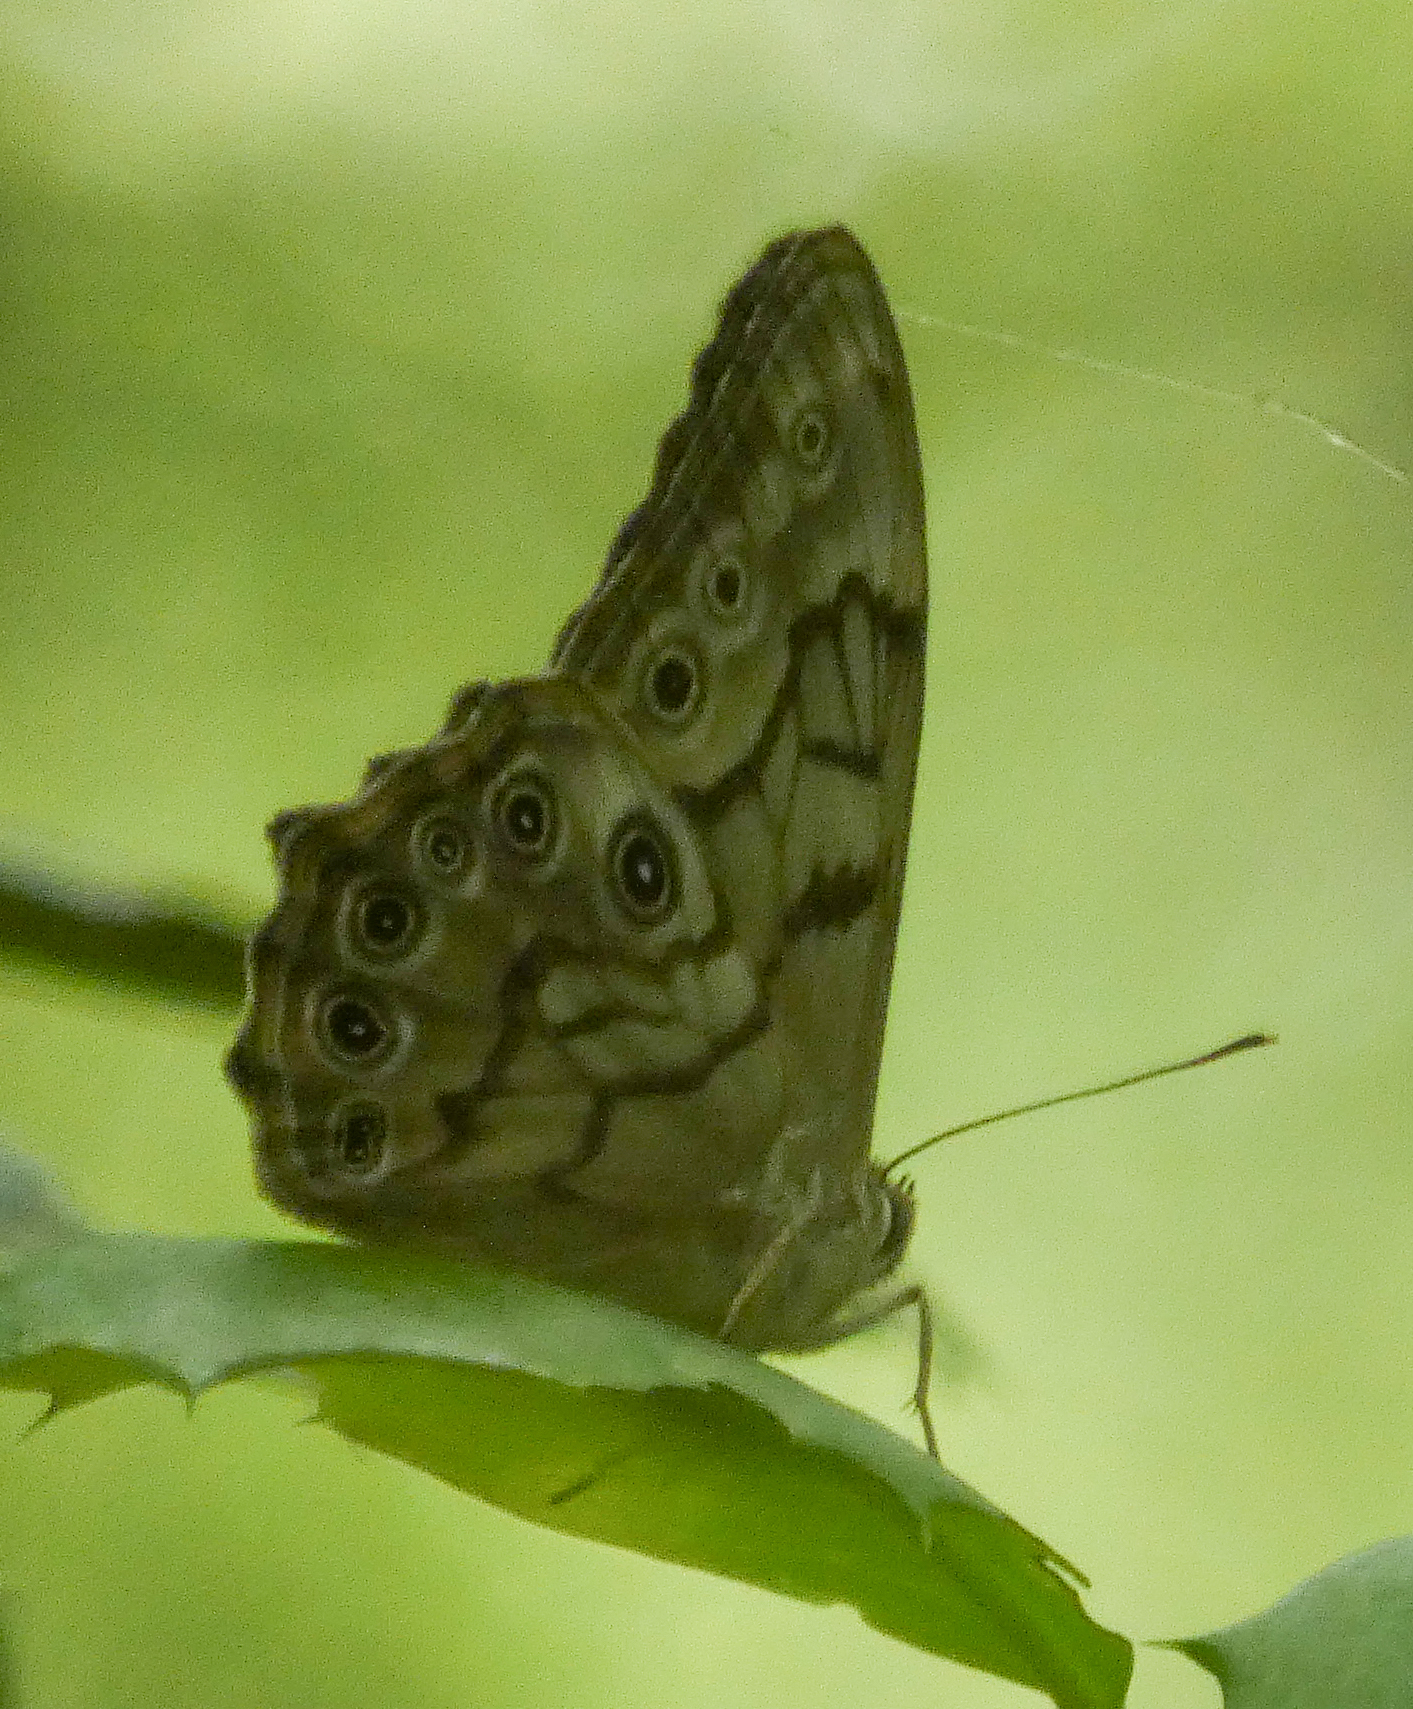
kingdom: Animalia
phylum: Arthropoda
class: Insecta
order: Lepidoptera
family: Nymphalidae
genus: Lethe
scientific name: Lethe creola
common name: Creole pearly-eye
